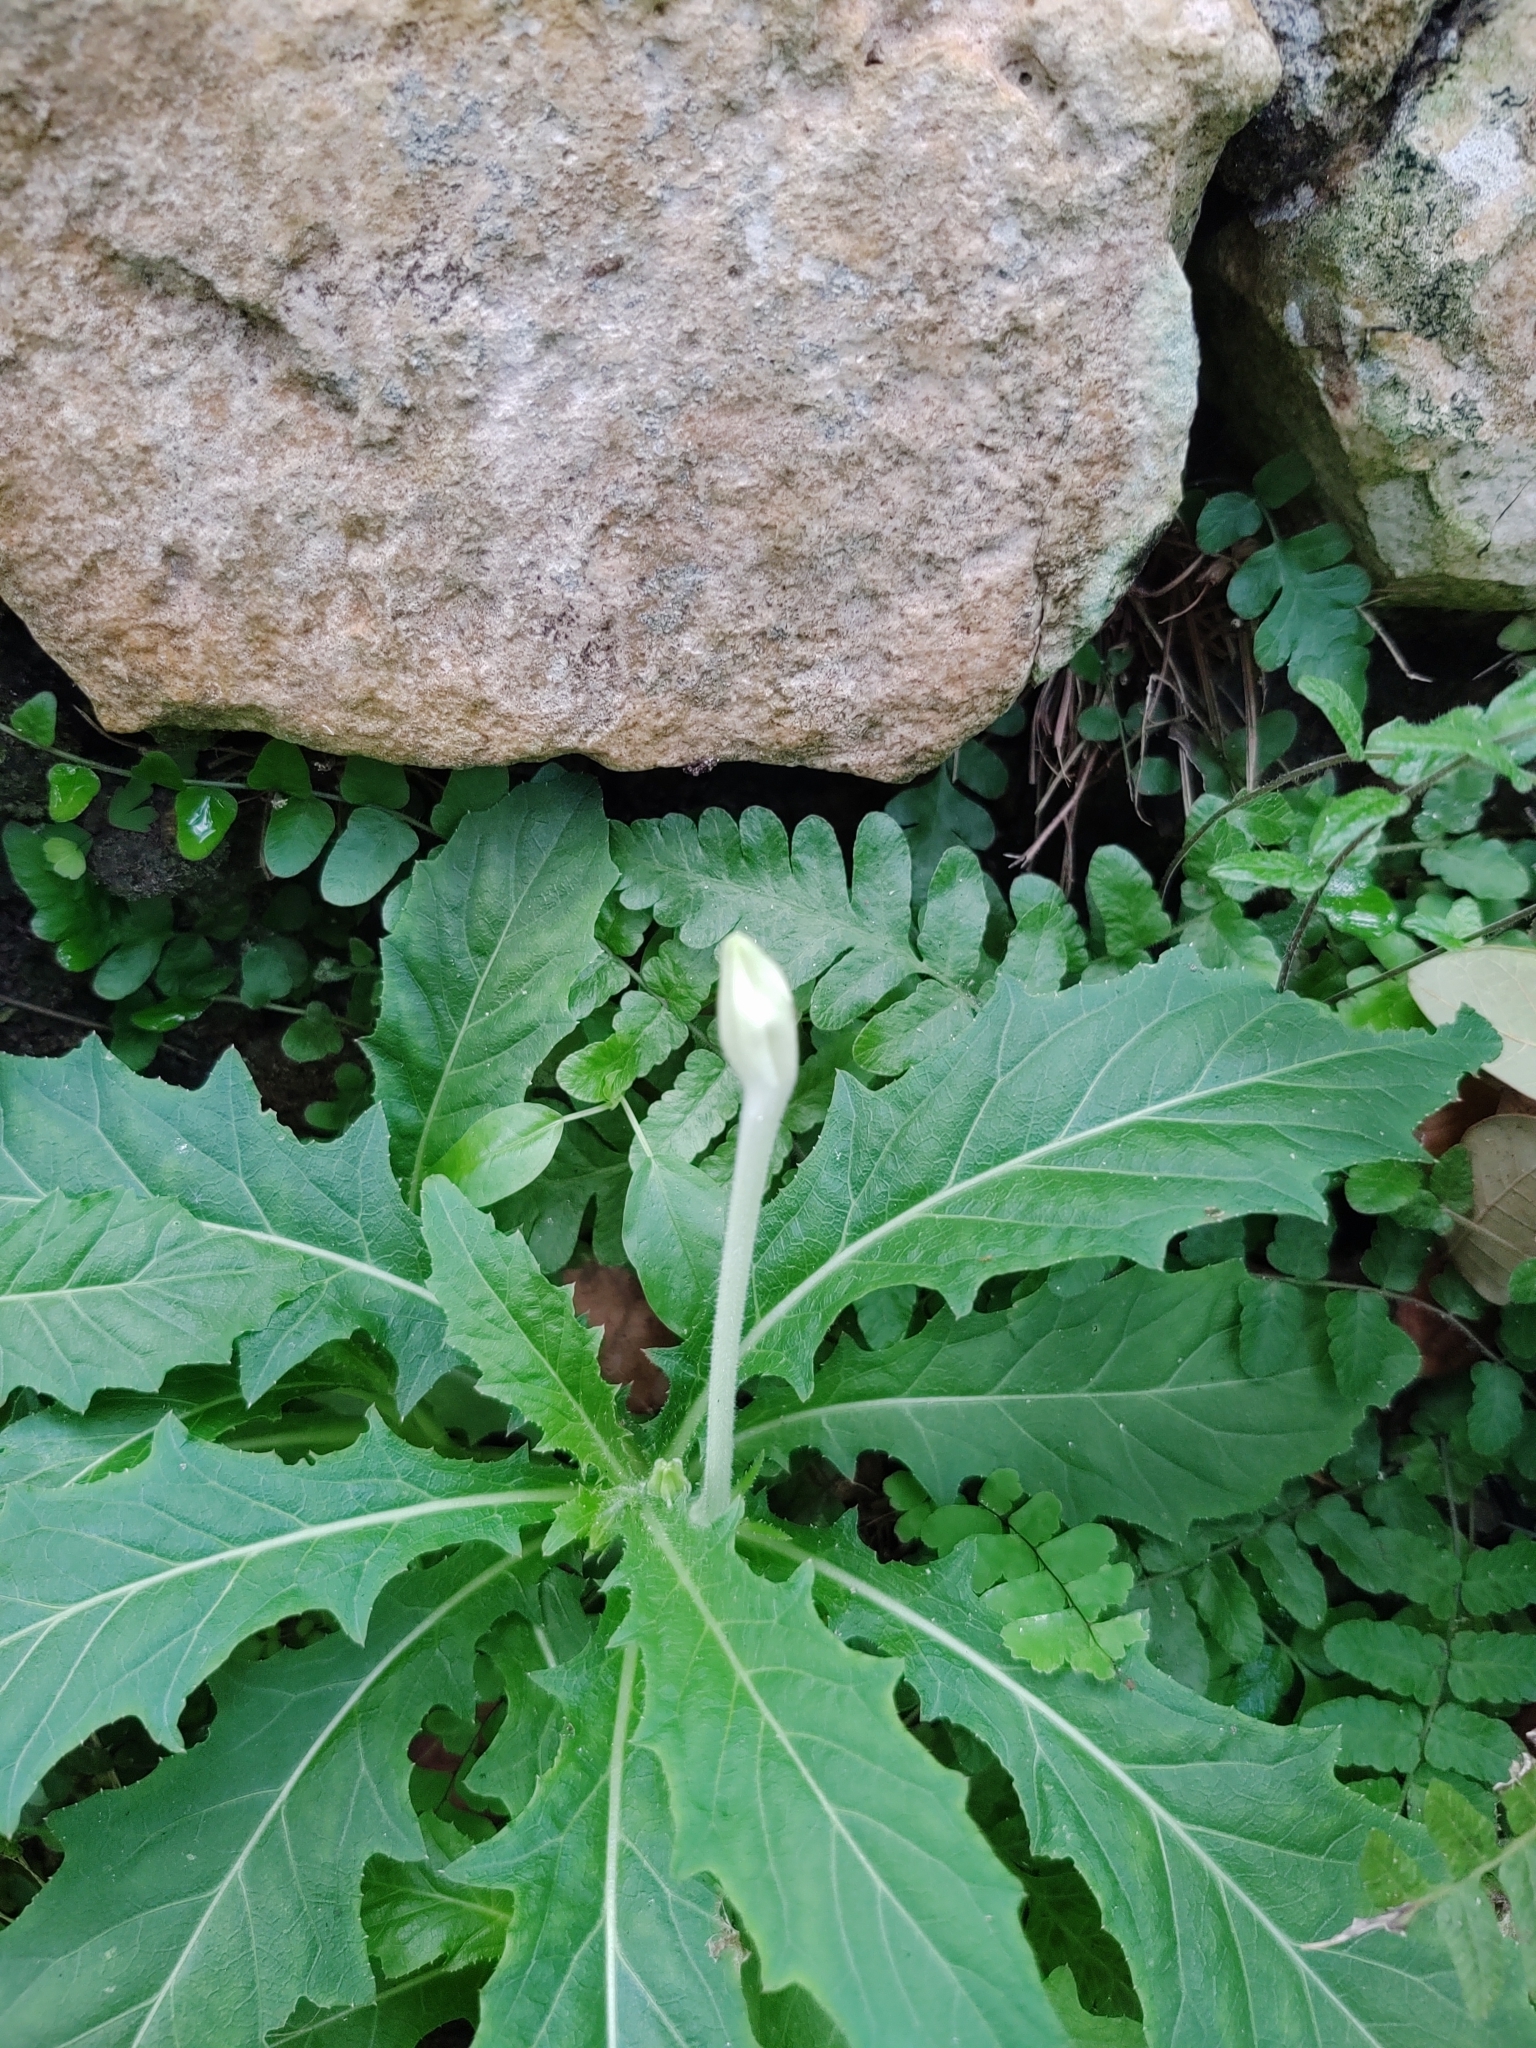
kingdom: Plantae
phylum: Tracheophyta
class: Magnoliopsida
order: Asterales
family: Campanulaceae
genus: Hippobroma
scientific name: Hippobroma longiflora
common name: Madamfate
